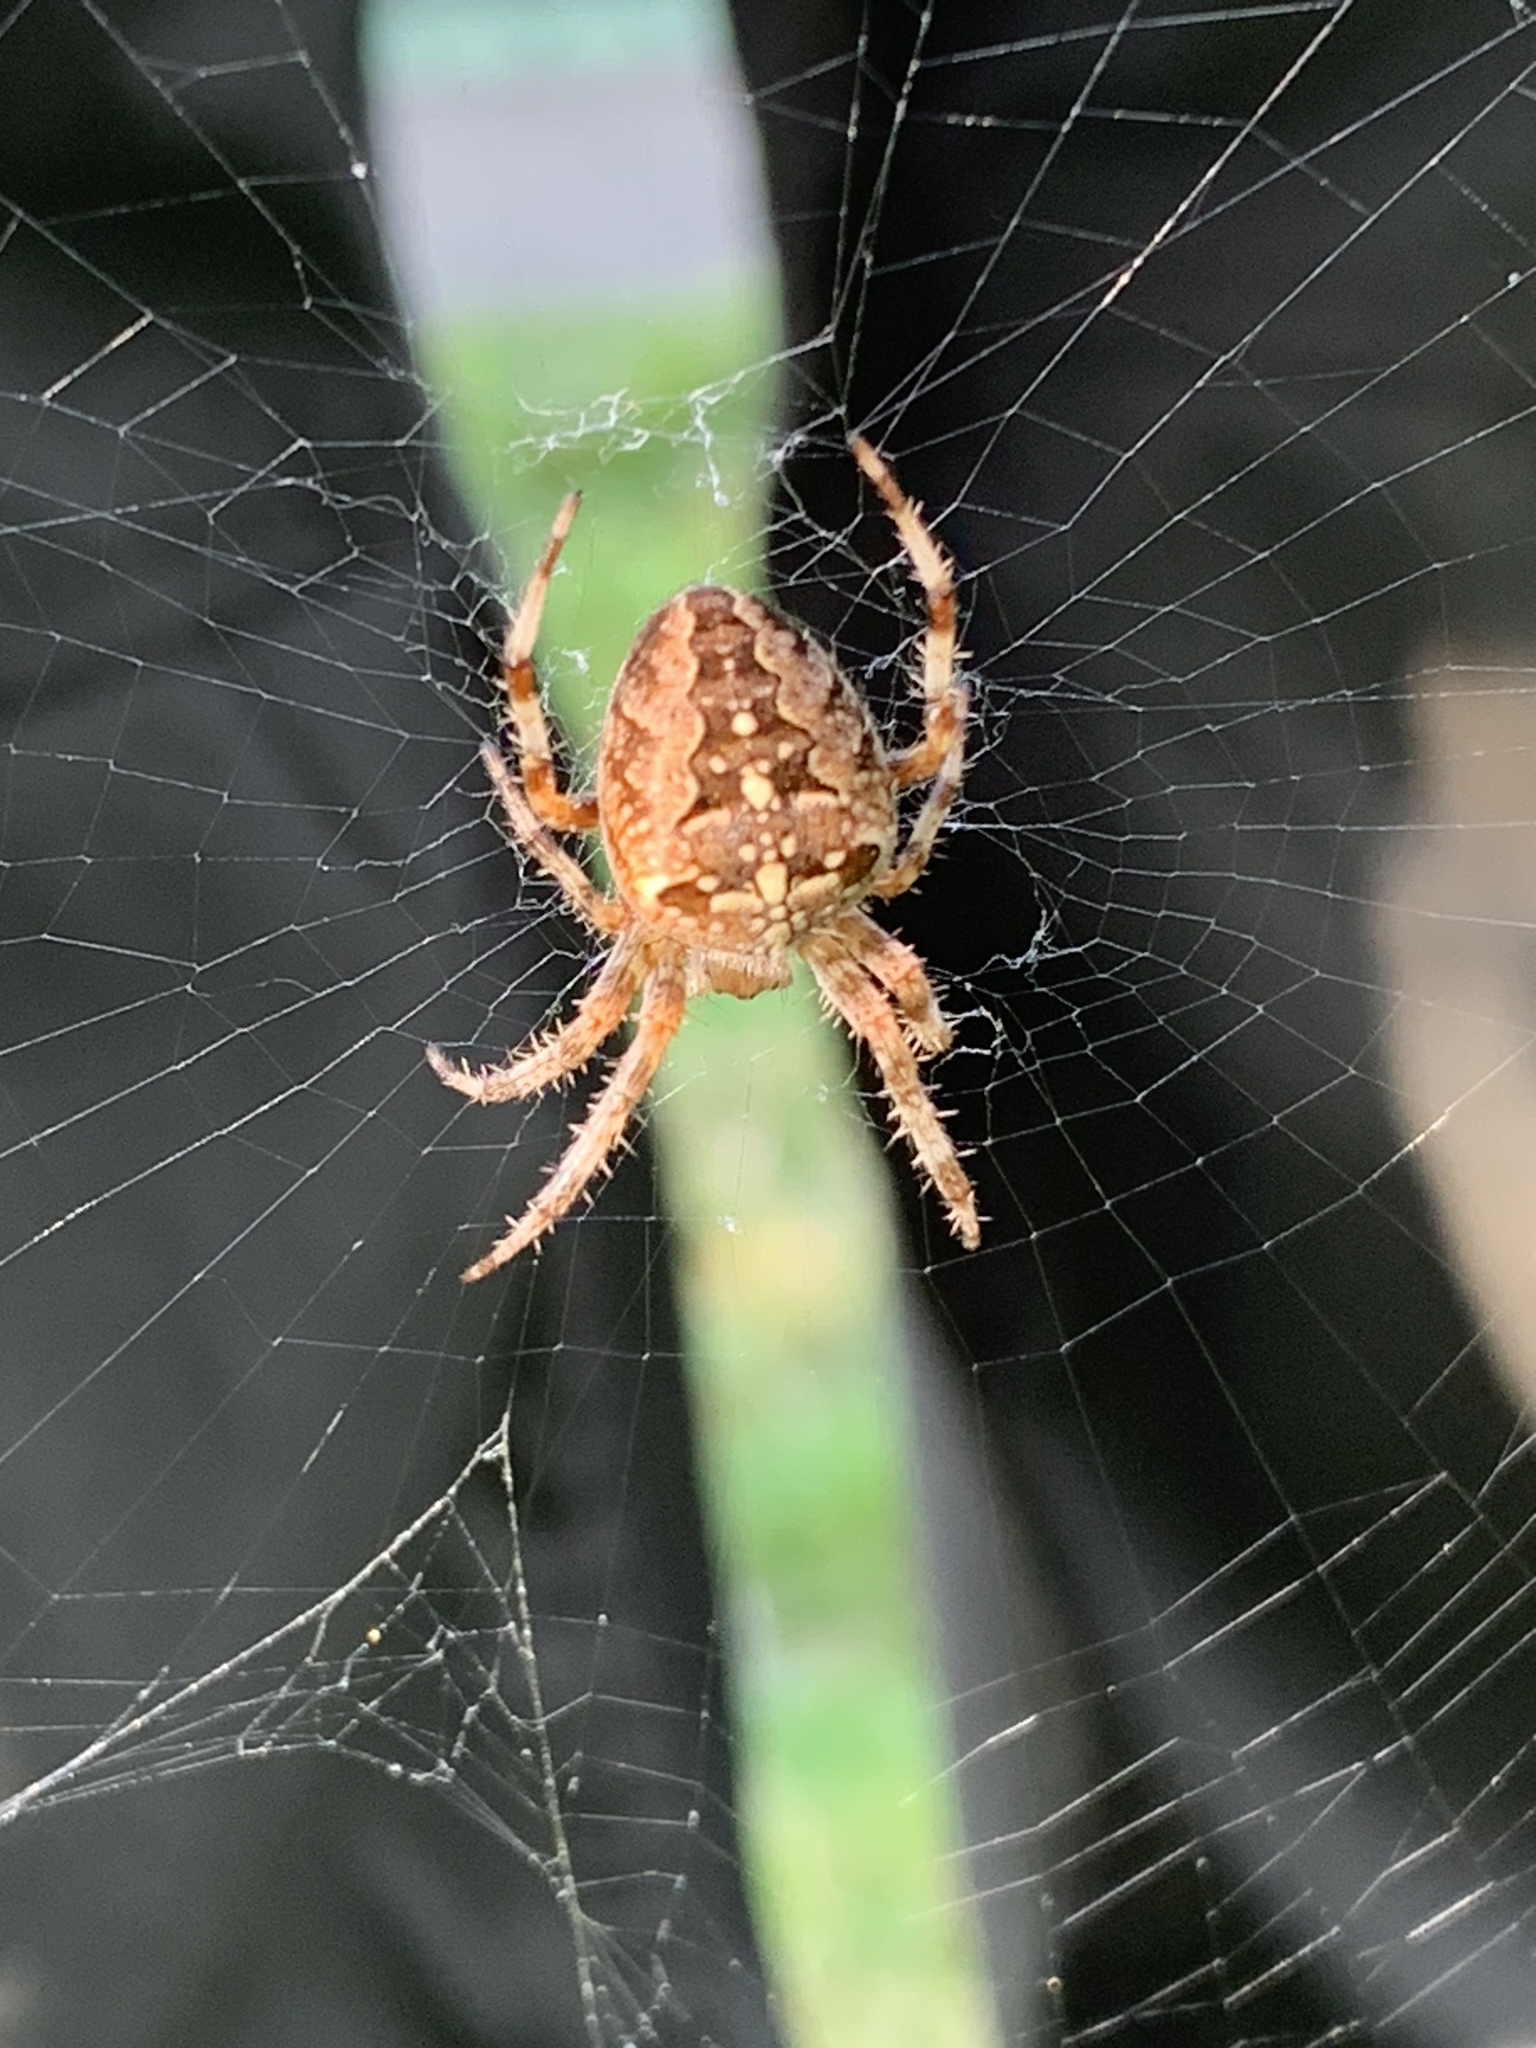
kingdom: Animalia
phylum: Arthropoda
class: Arachnida
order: Araneae
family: Araneidae
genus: Araneus
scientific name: Araneus diadematus
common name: Cross orbweaver
